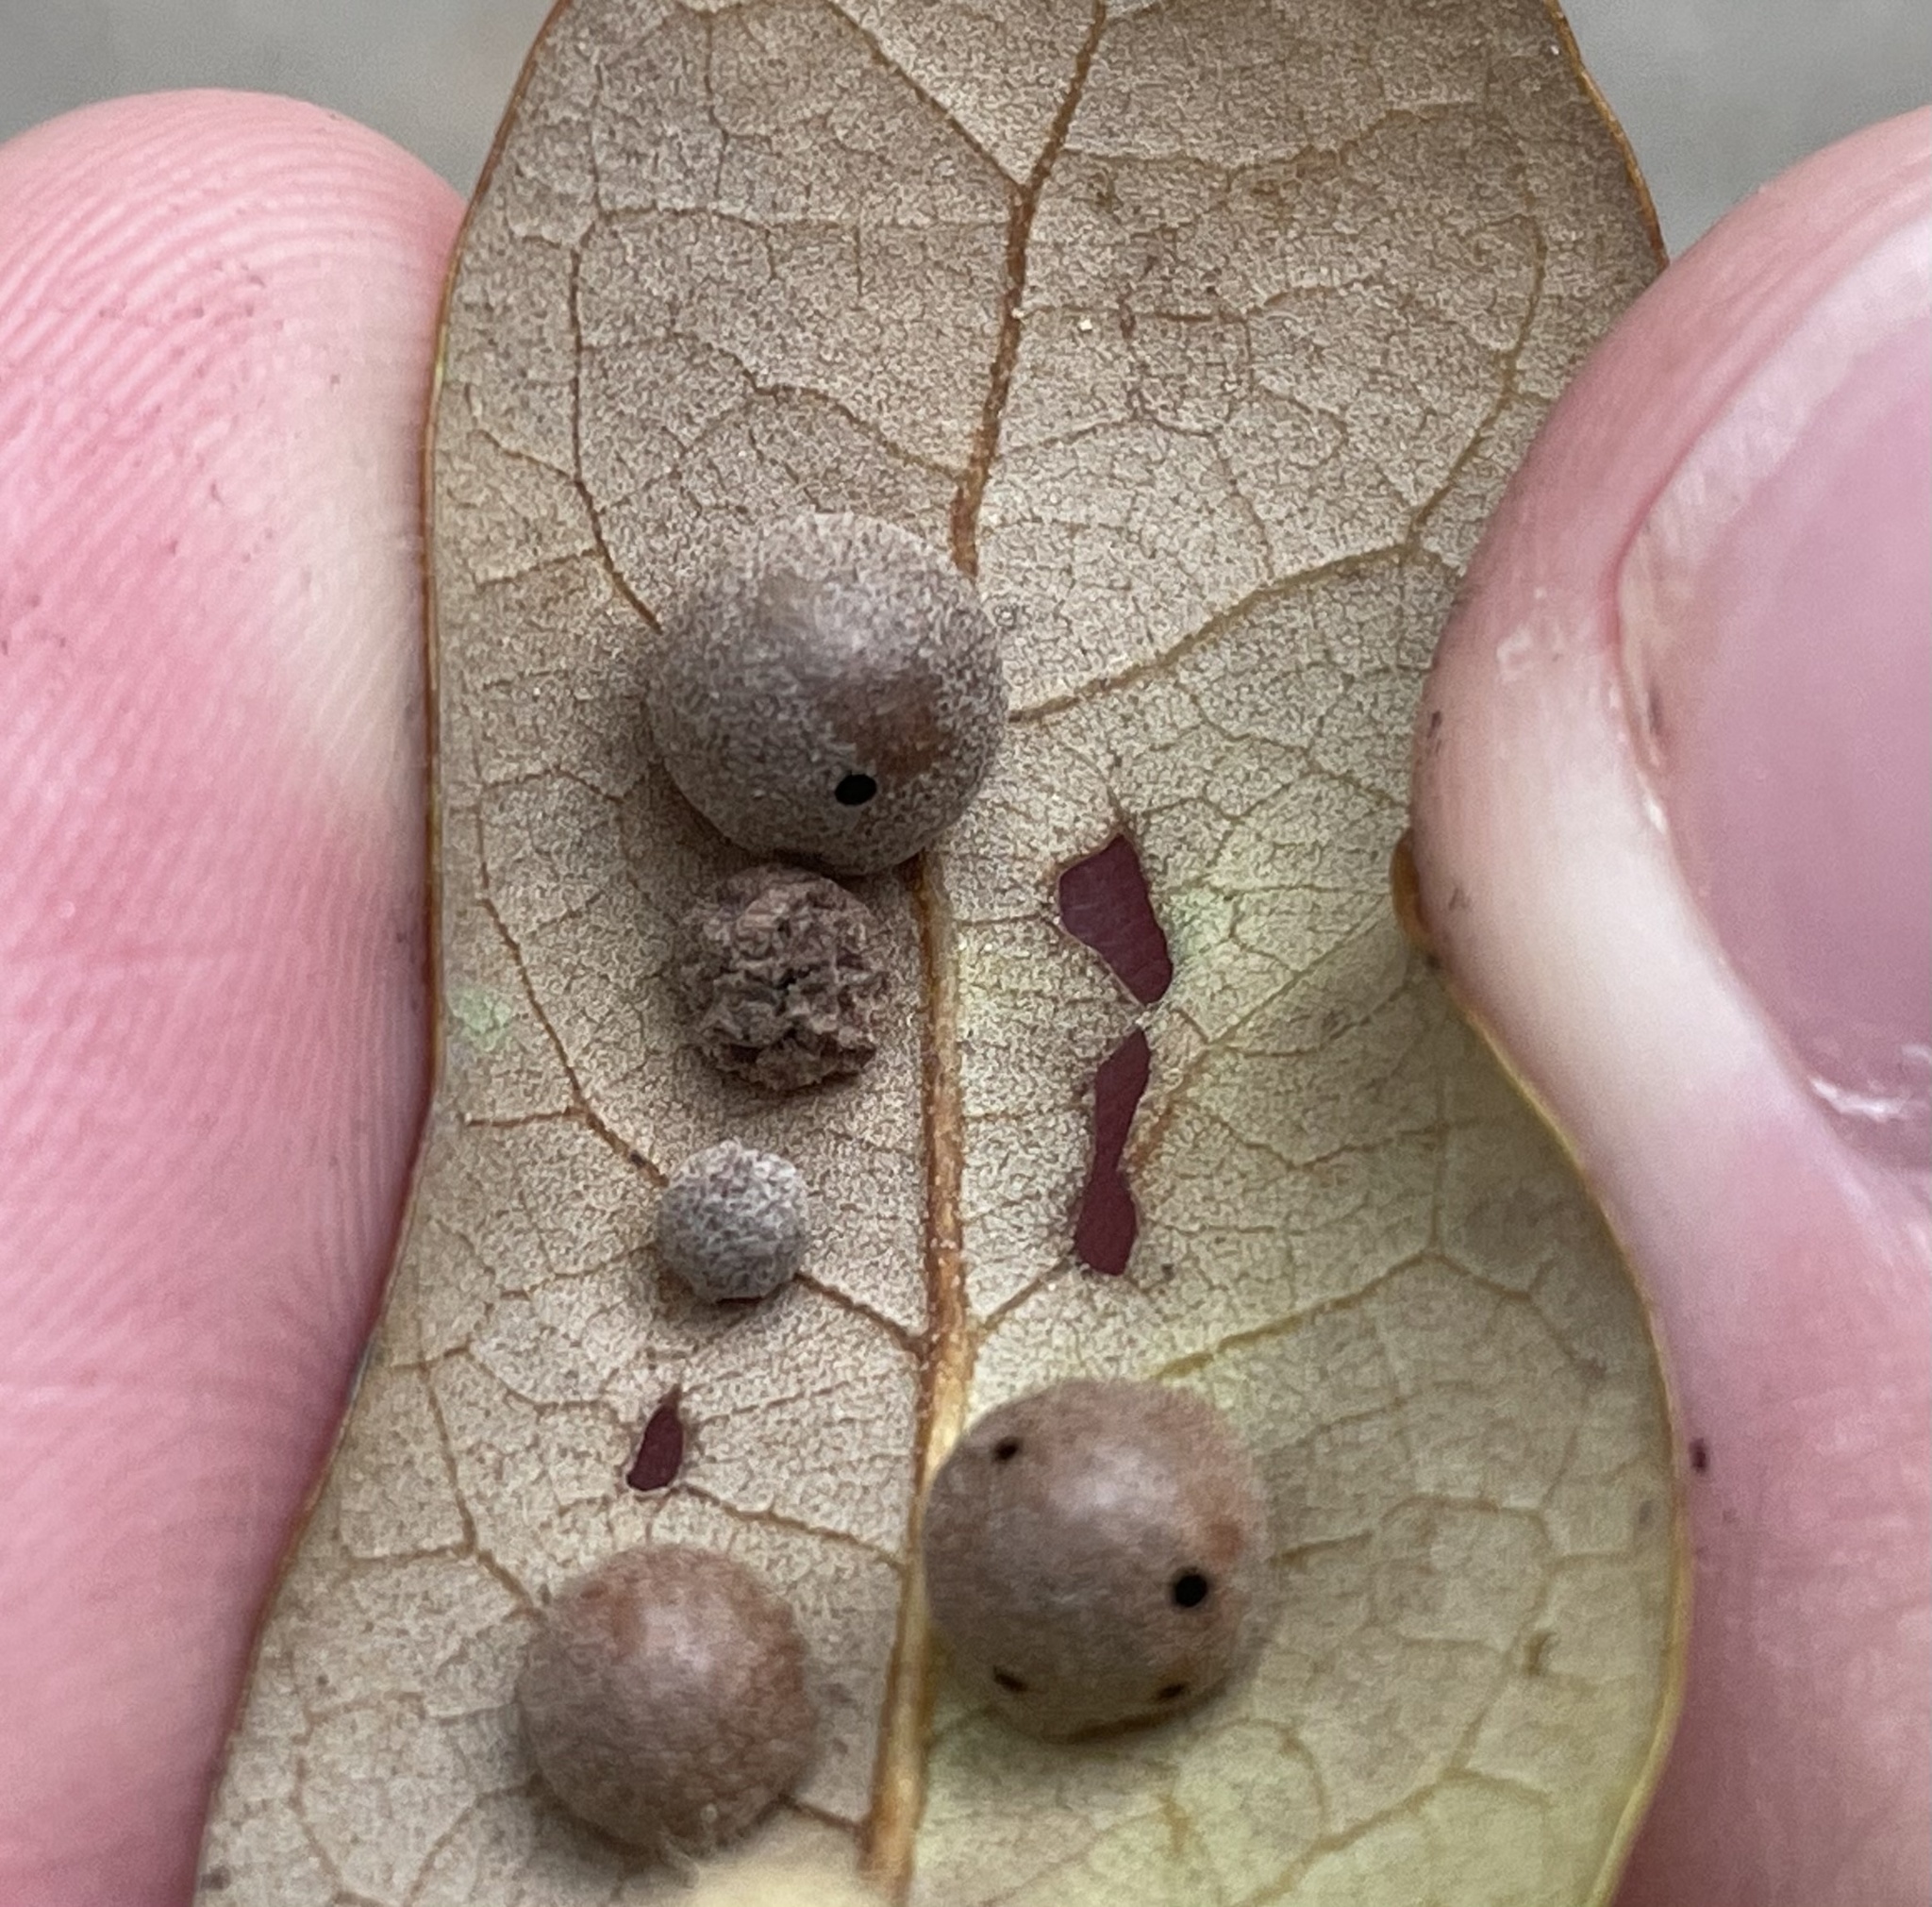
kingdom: Animalia
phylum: Arthropoda
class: Insecta
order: Hymenoptera
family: Cynipidae
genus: Belonocnema
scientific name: Belonocnema kinseyi
